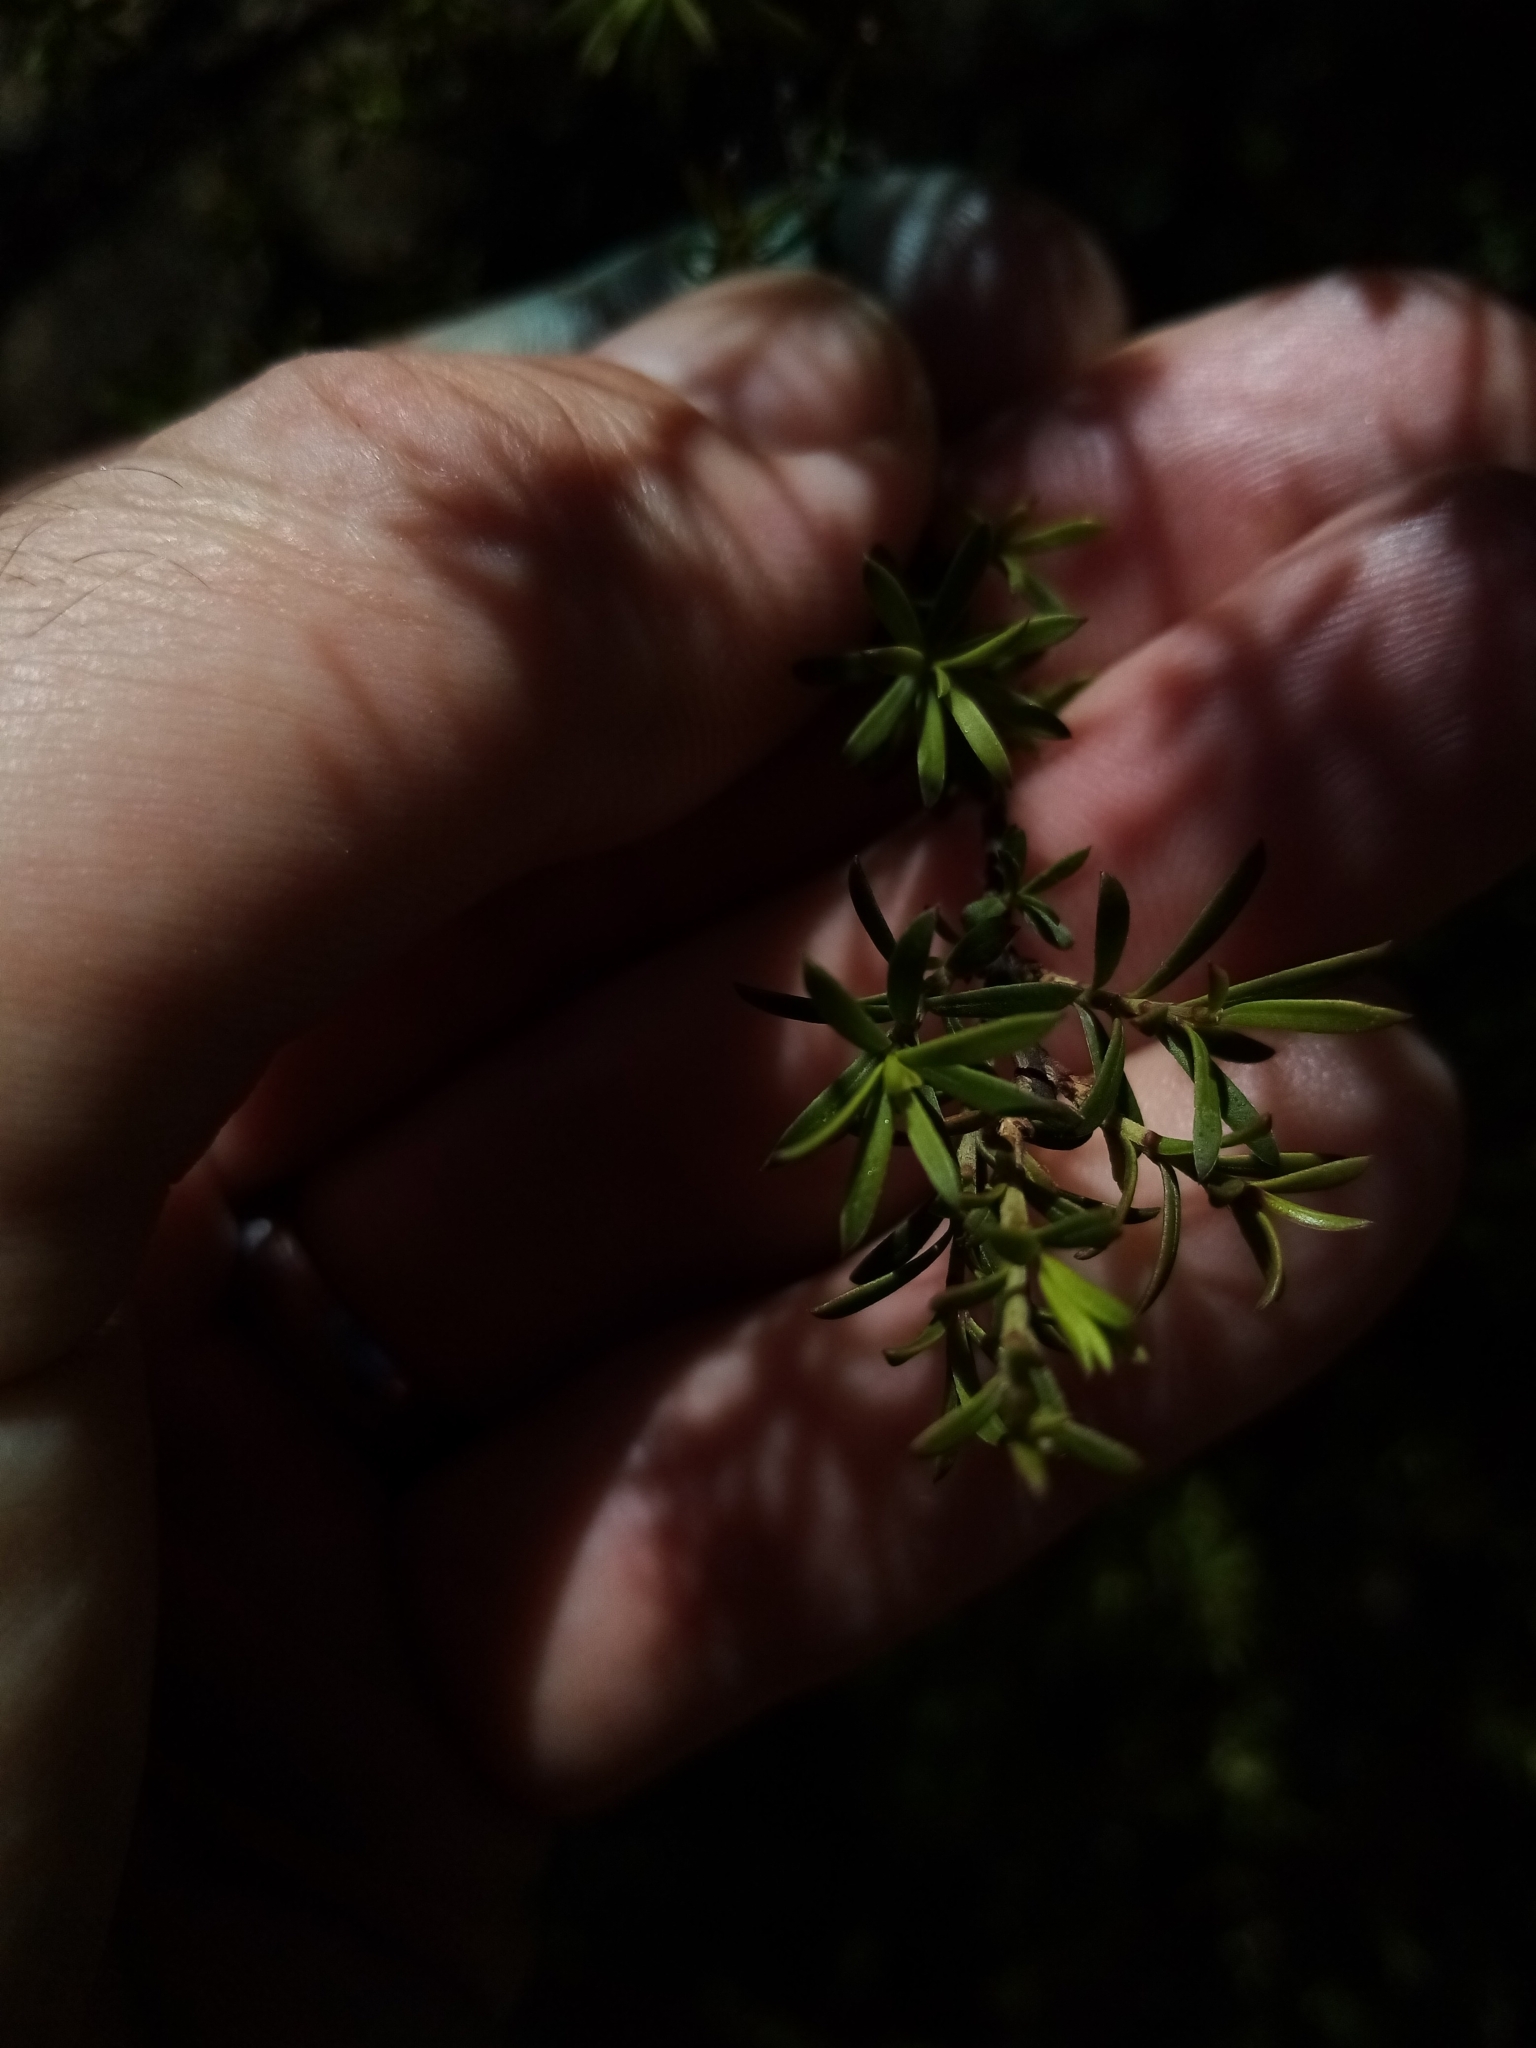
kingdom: Plantae
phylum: Tracheophyta
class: Magnoliopsida
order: Myrtales
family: Myrtaceae
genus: Kunzea
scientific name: Kunzea robusta
